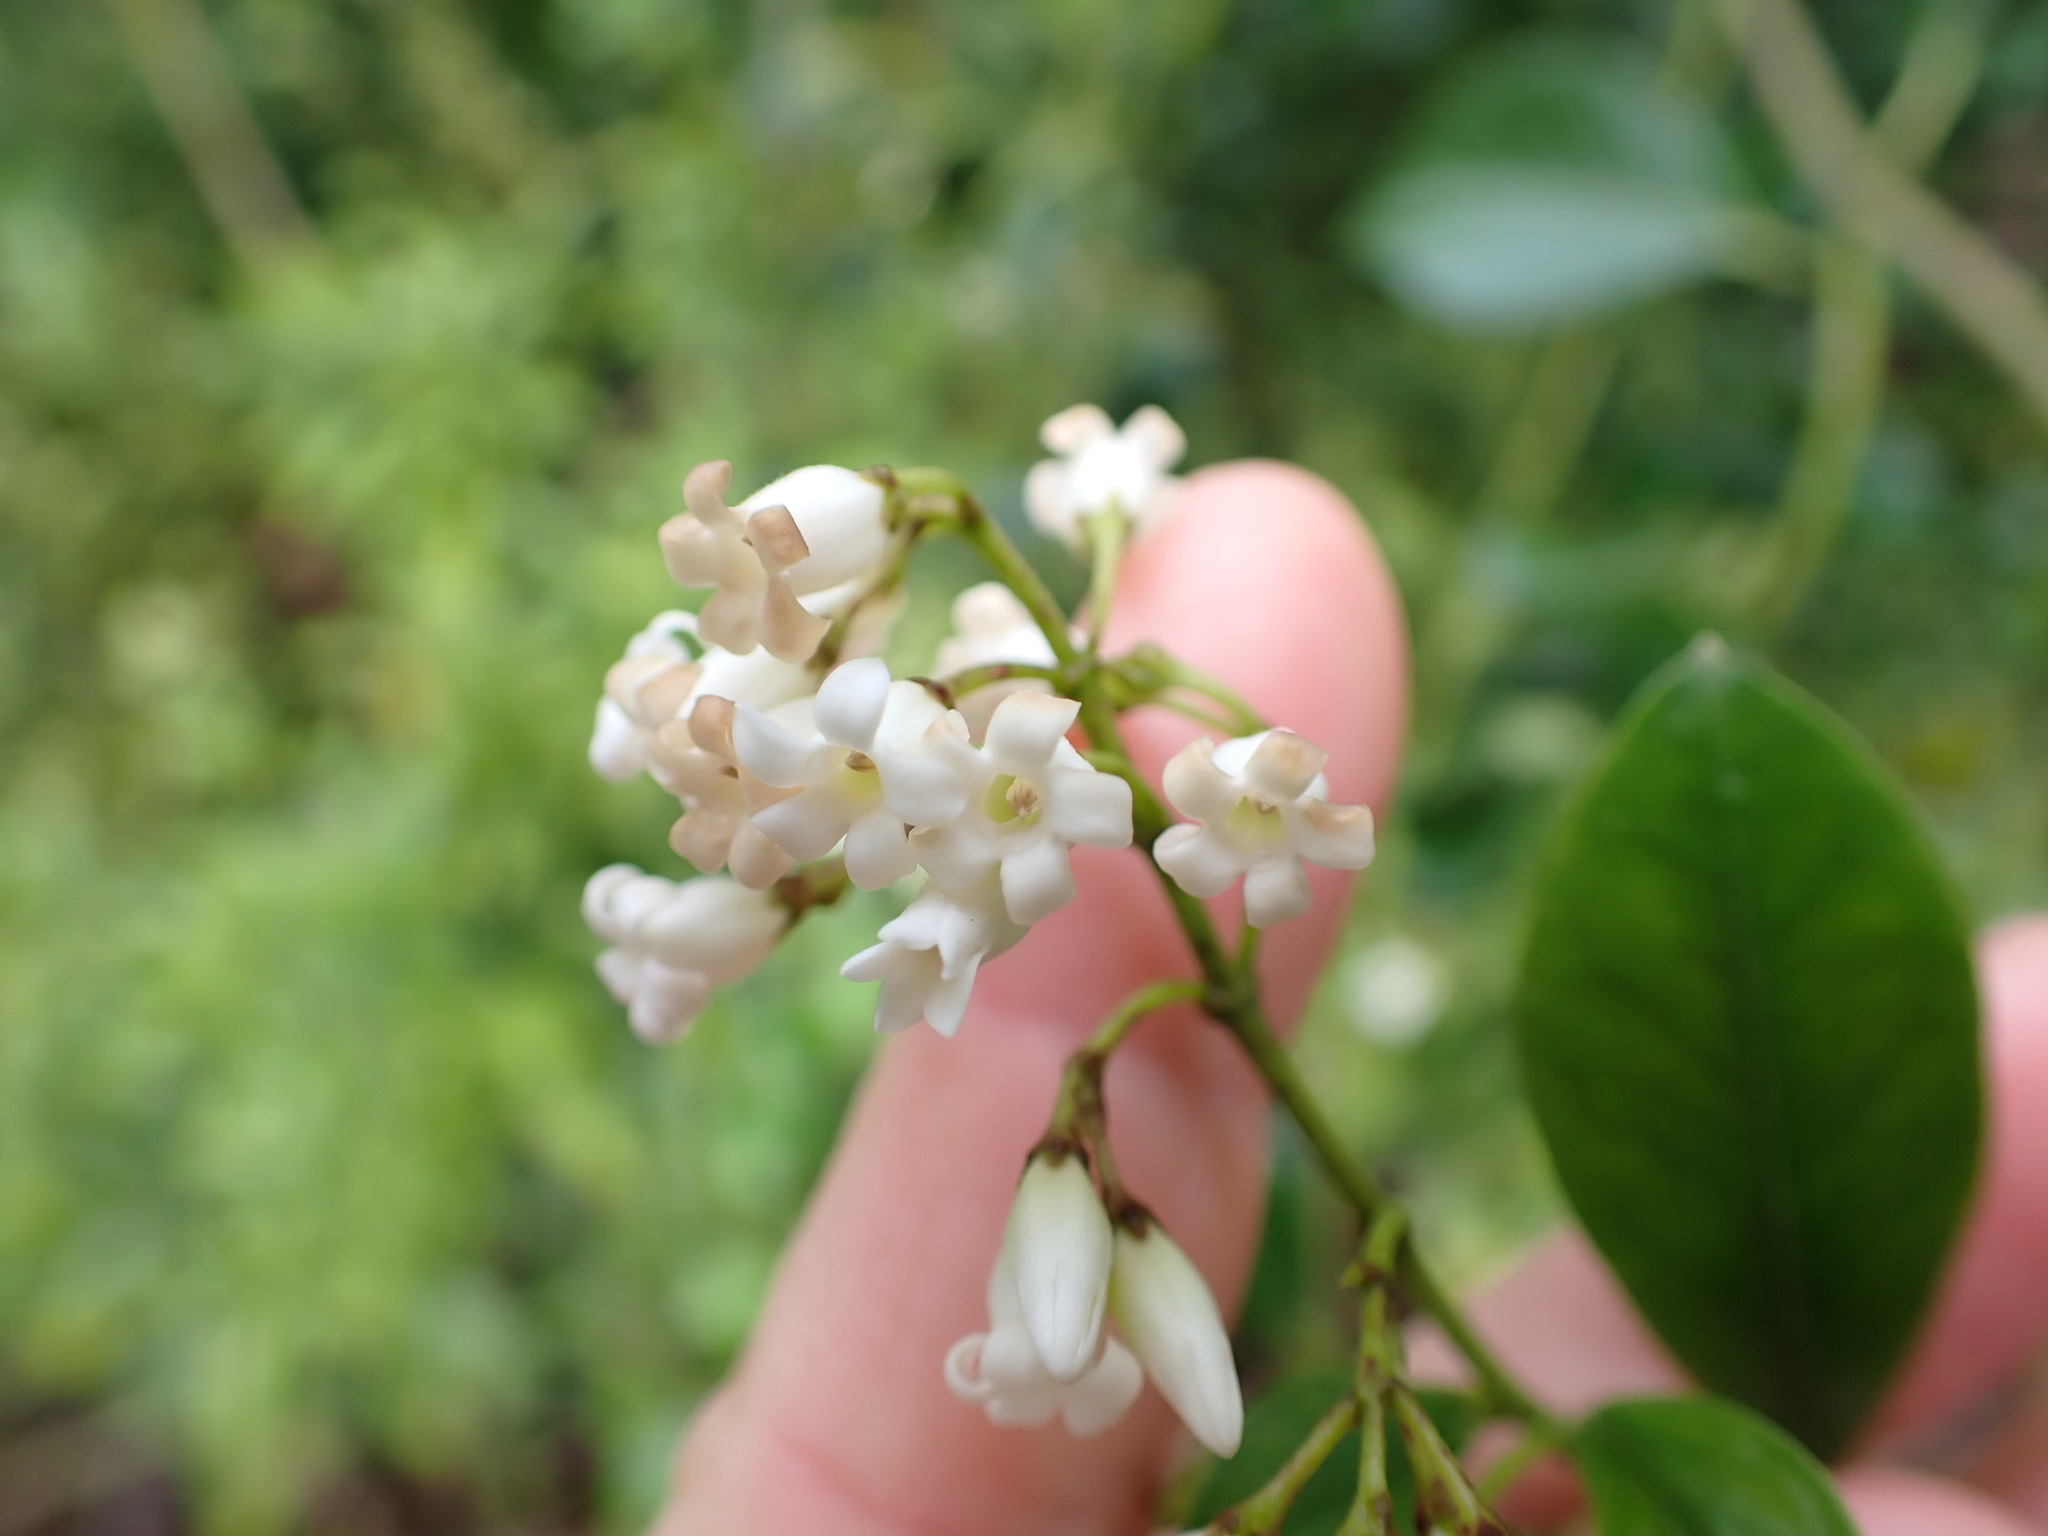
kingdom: Plantae
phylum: Tracheophyta
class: Magnoliopsida
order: Gentianales
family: Apocynaceae
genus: Parsonsia
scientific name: Parsonsia heterophylla
